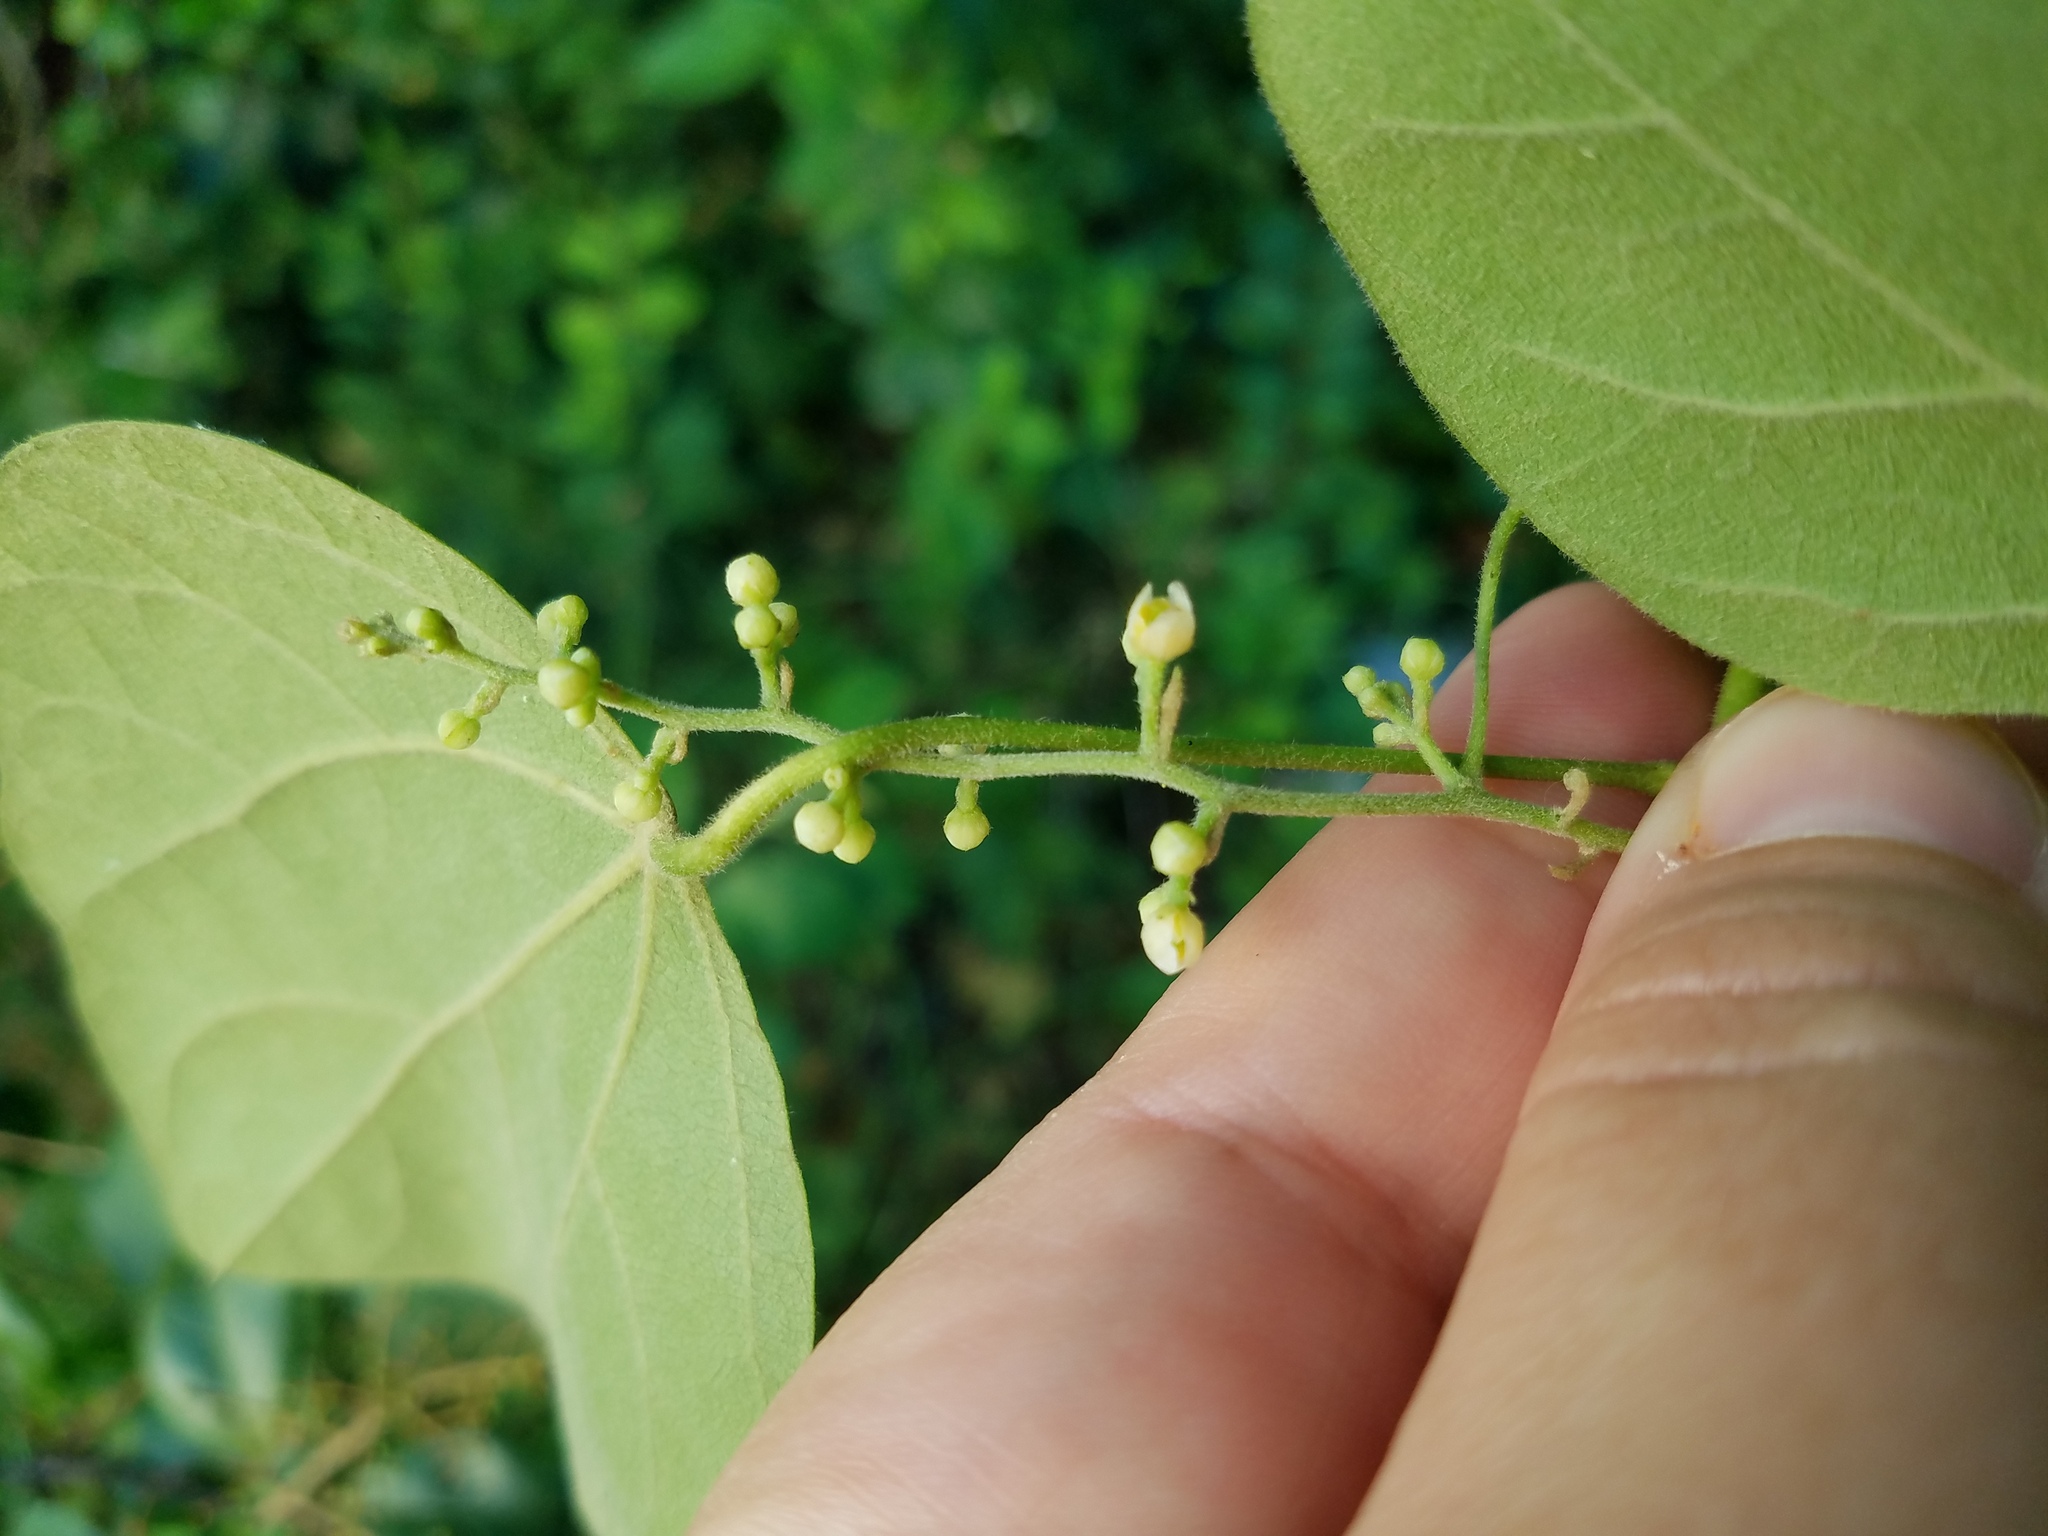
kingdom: Plantae
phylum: Tracheophyta
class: Magnoliopsida
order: Ranunculales
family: Menispermaceae
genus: Cocculus
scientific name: Cocculus carolinus
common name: Carolina moonseed
